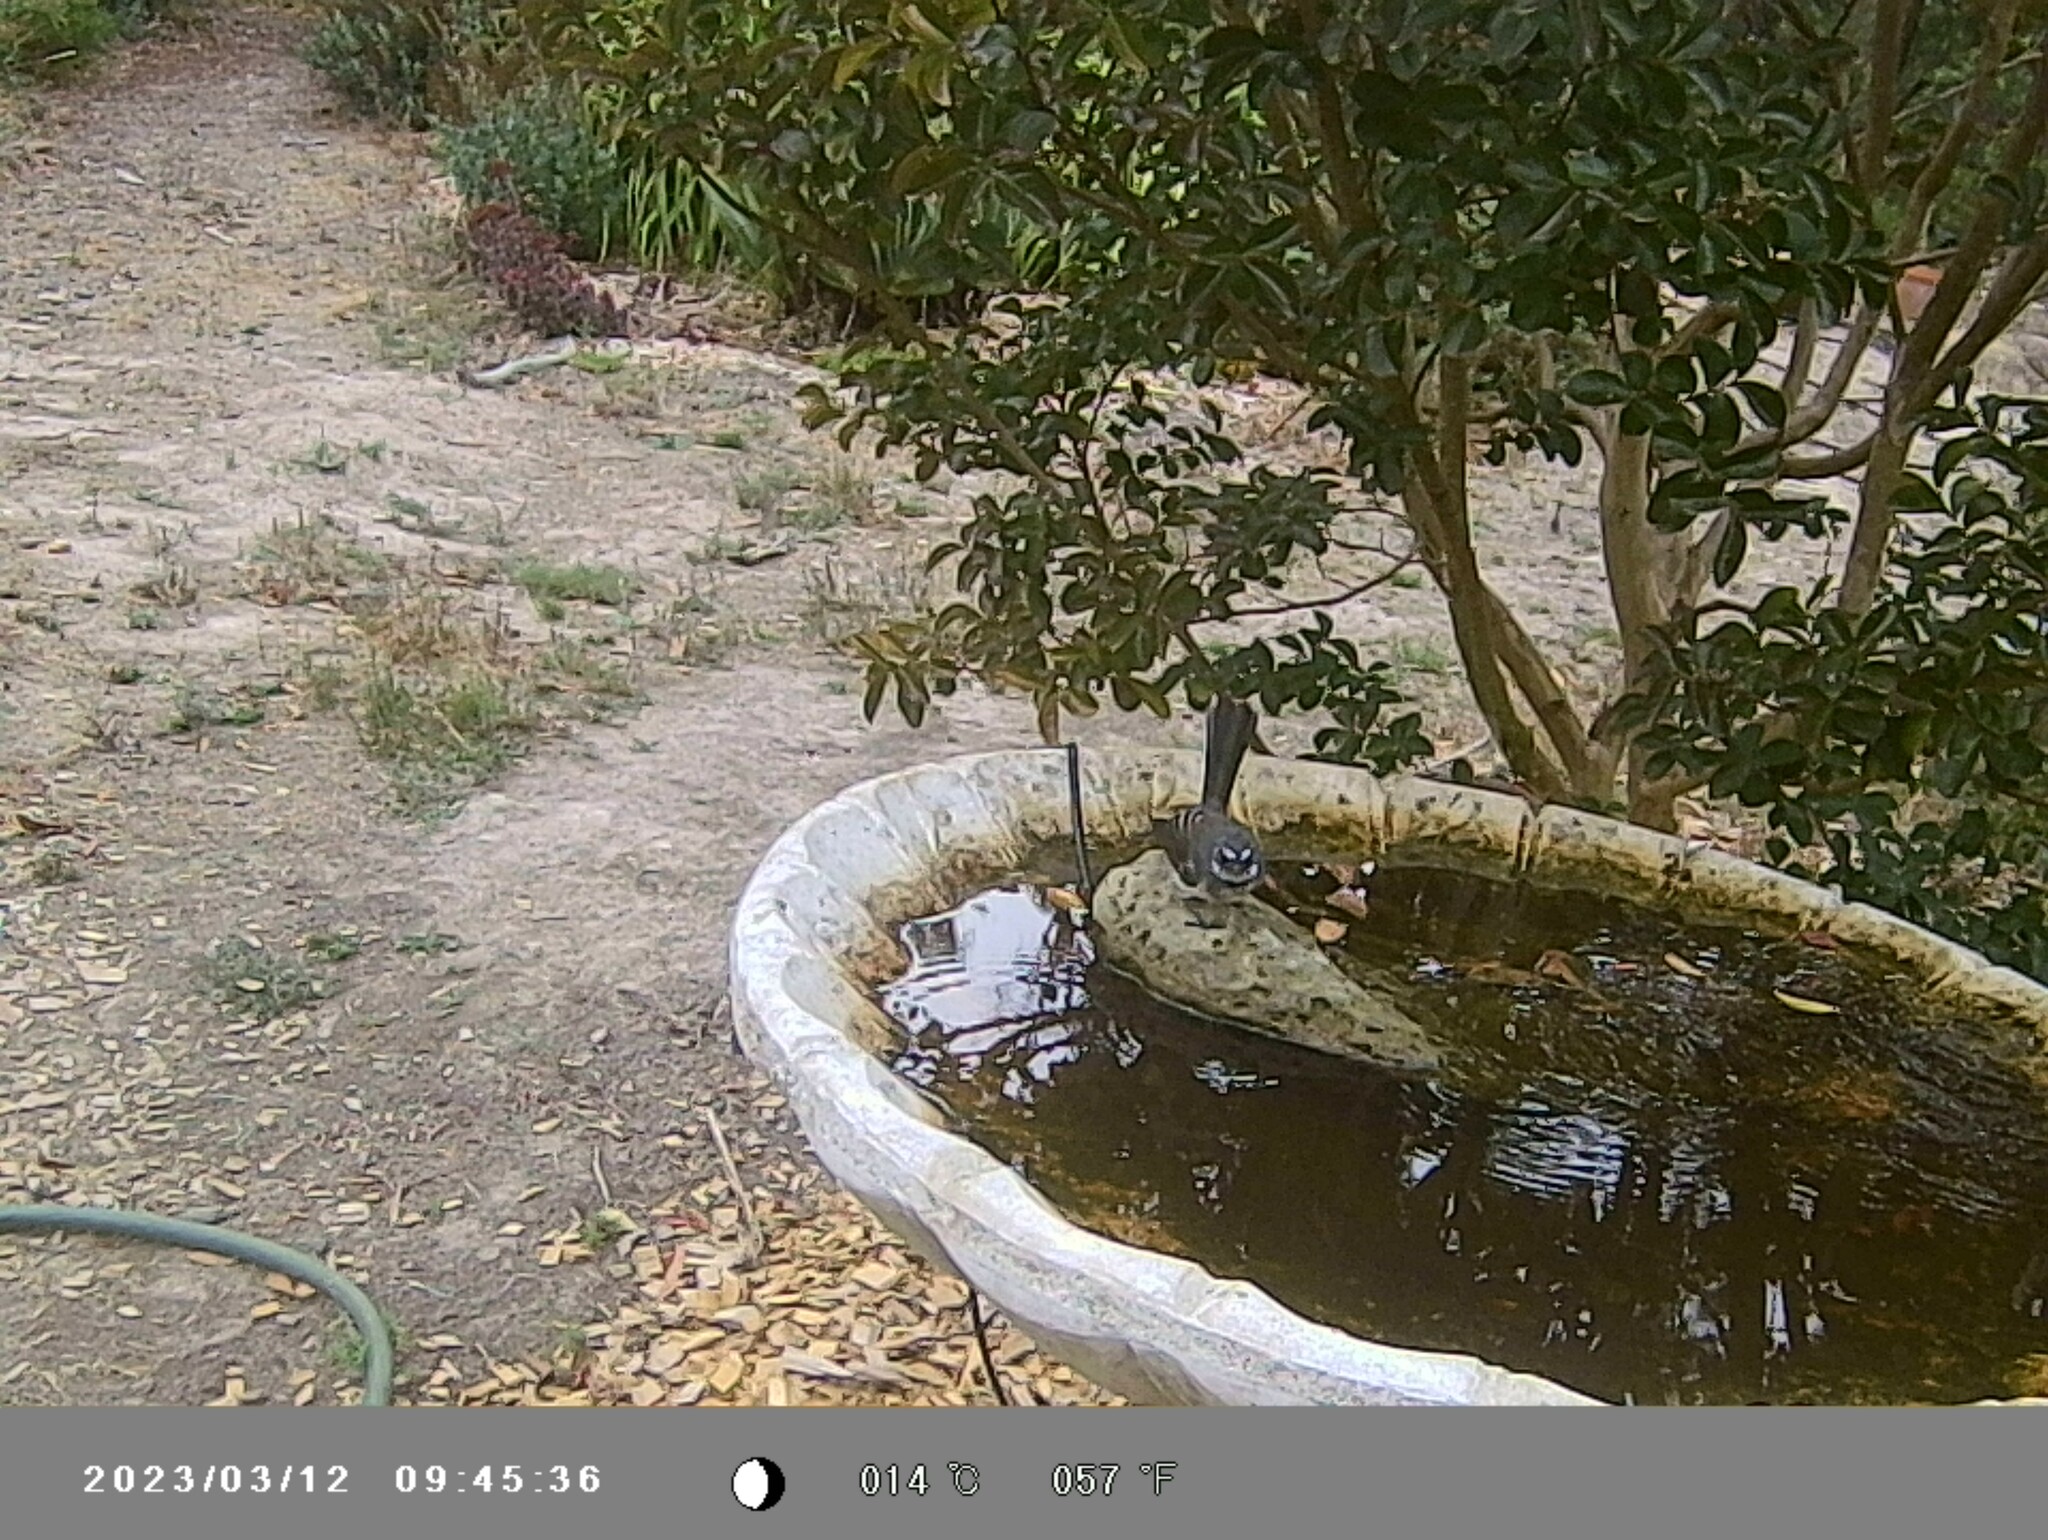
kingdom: Animalia
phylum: Chordata
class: Aves
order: Passeriformes
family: Rhipiduridae
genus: Rhipidura
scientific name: Rhipidura albiscapa
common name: Grey fantail
